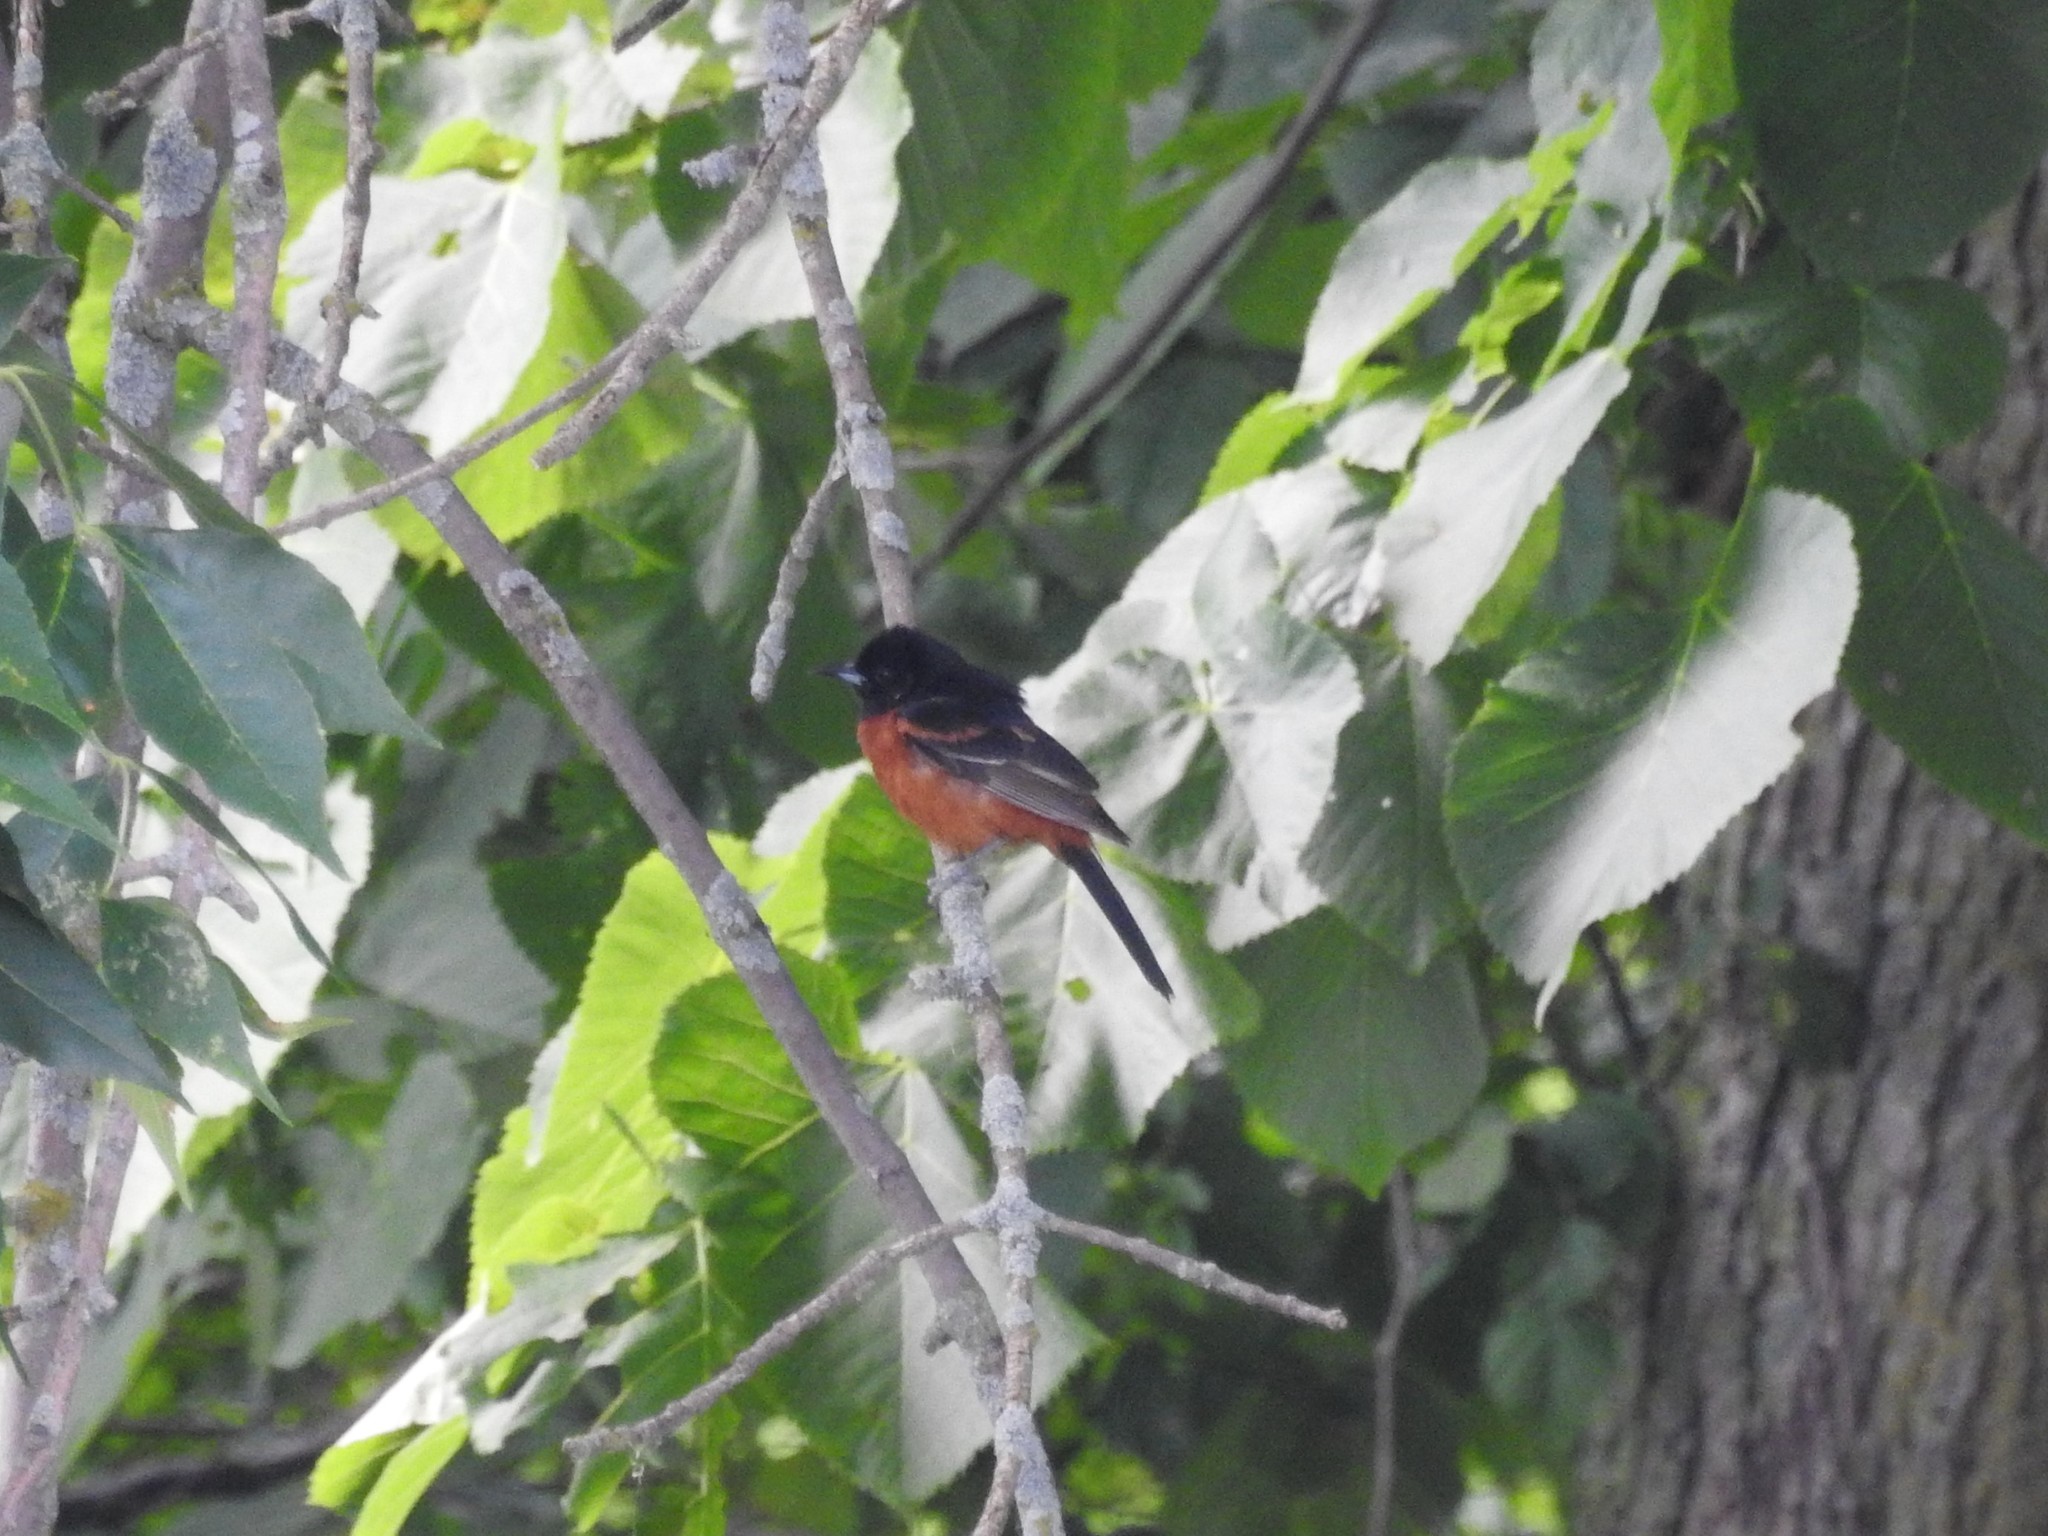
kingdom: Animalia
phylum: Chordata
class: Aves
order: Passeriformes
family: Icteridae
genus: Icterus
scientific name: Icterus spurius
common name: Orchard oriole
